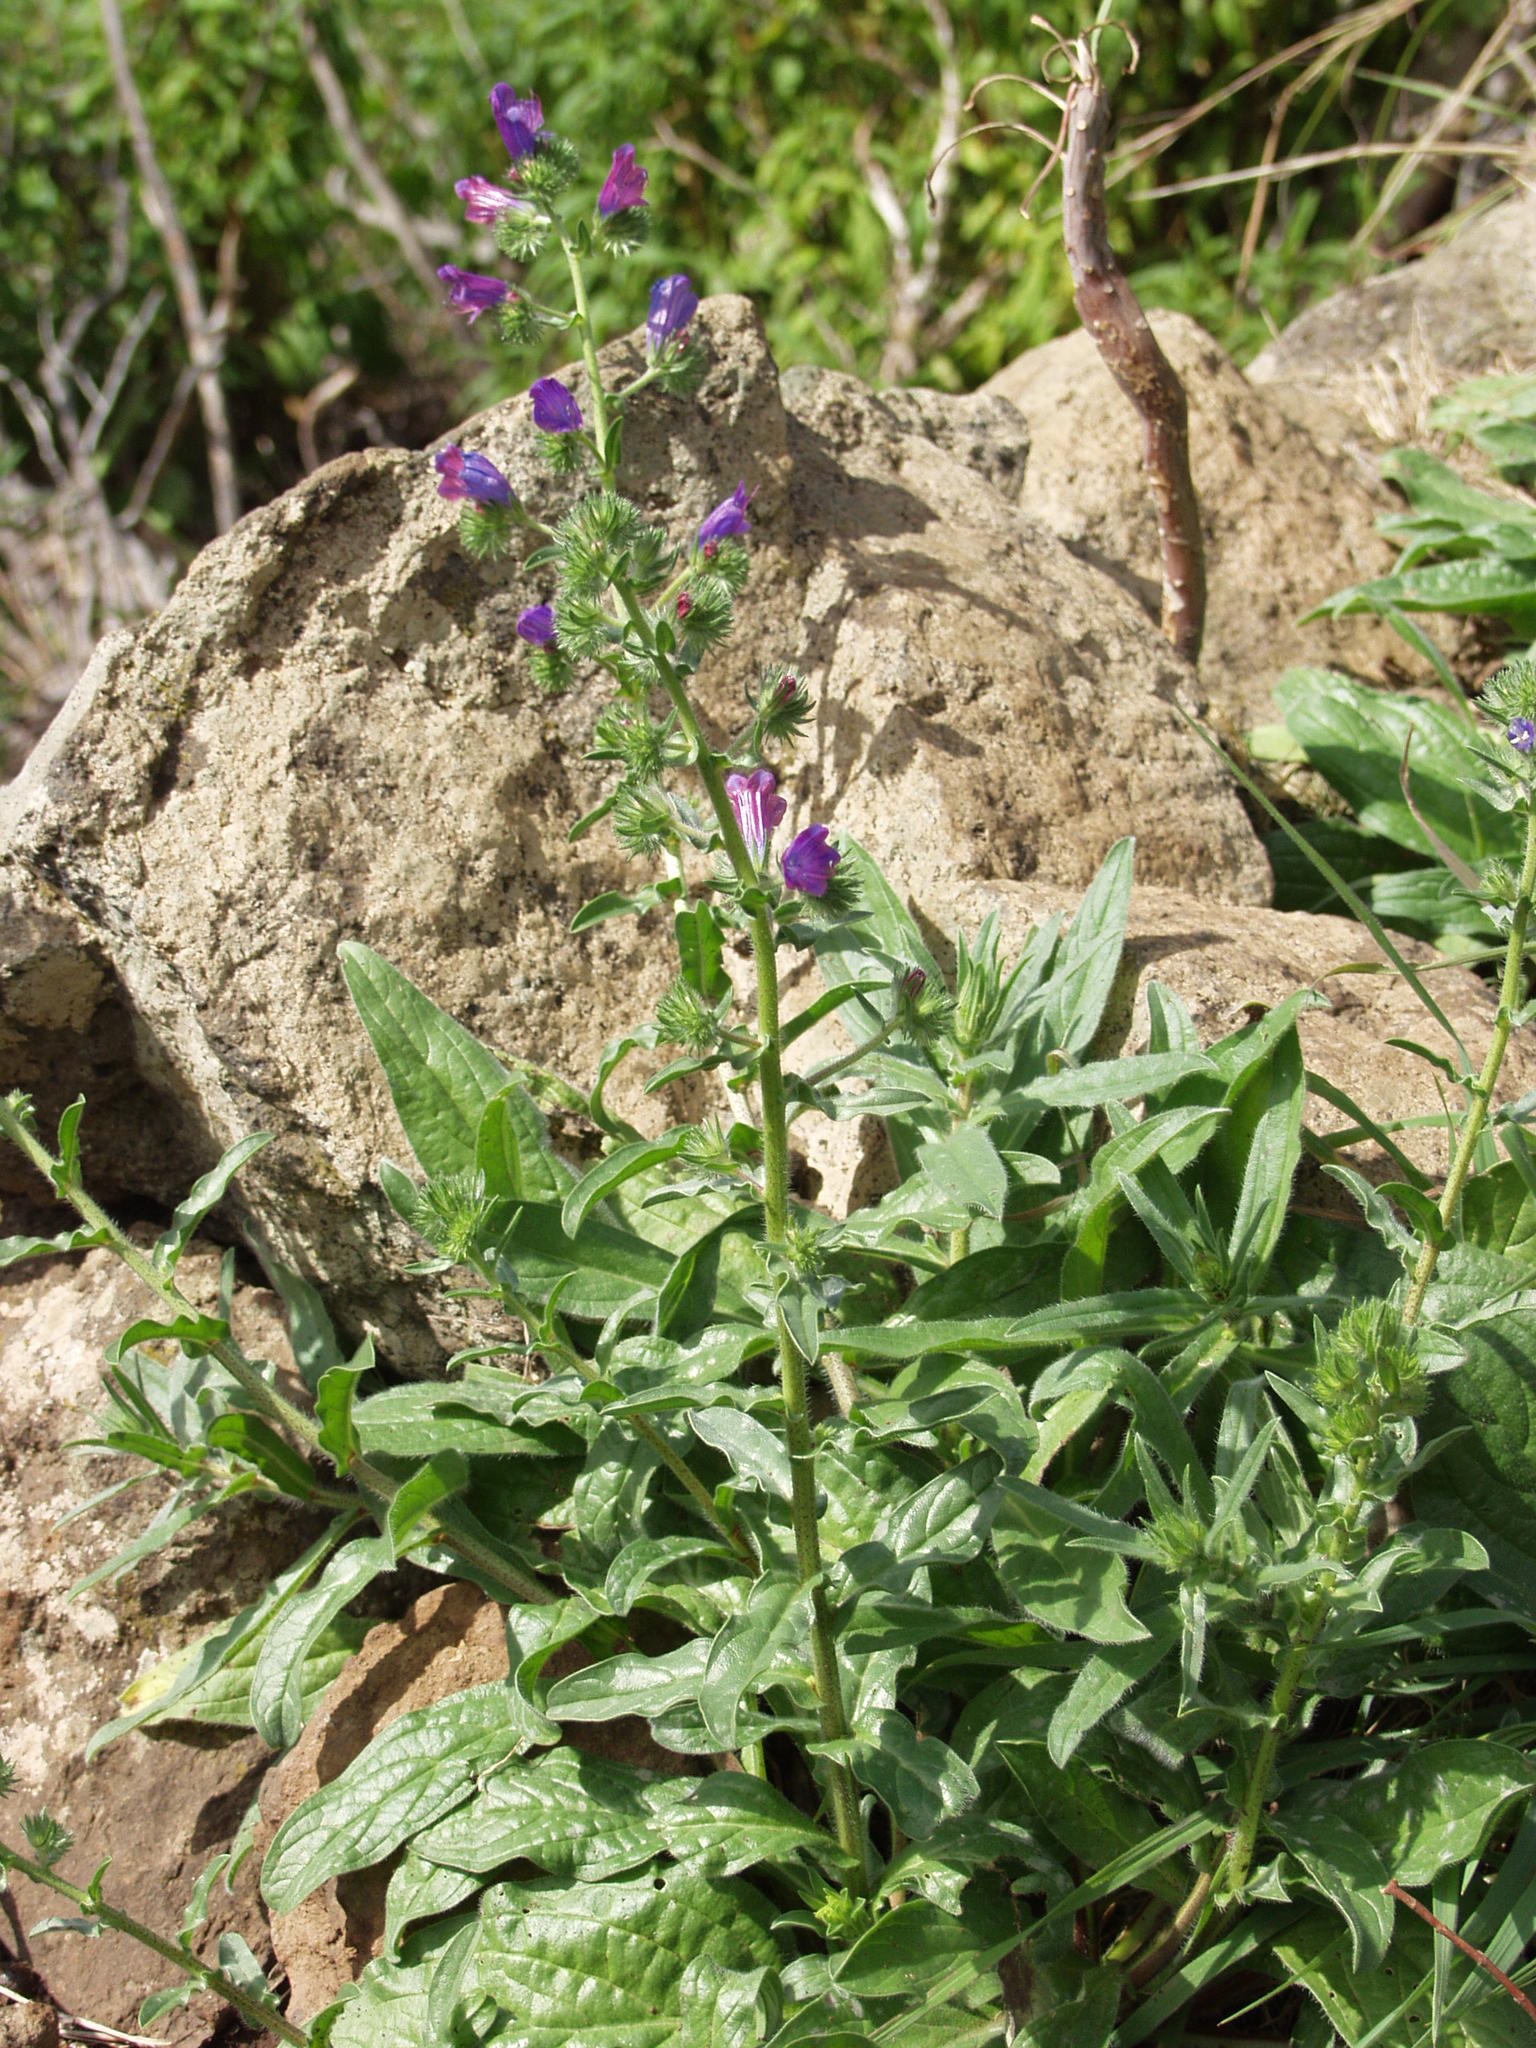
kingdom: Plantae
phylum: Tracheophyta
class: Magnoliopsida
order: Boraginales
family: Boraginaceae
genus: Echium
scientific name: Echium plantagineum
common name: Purple viper's-bugloss
